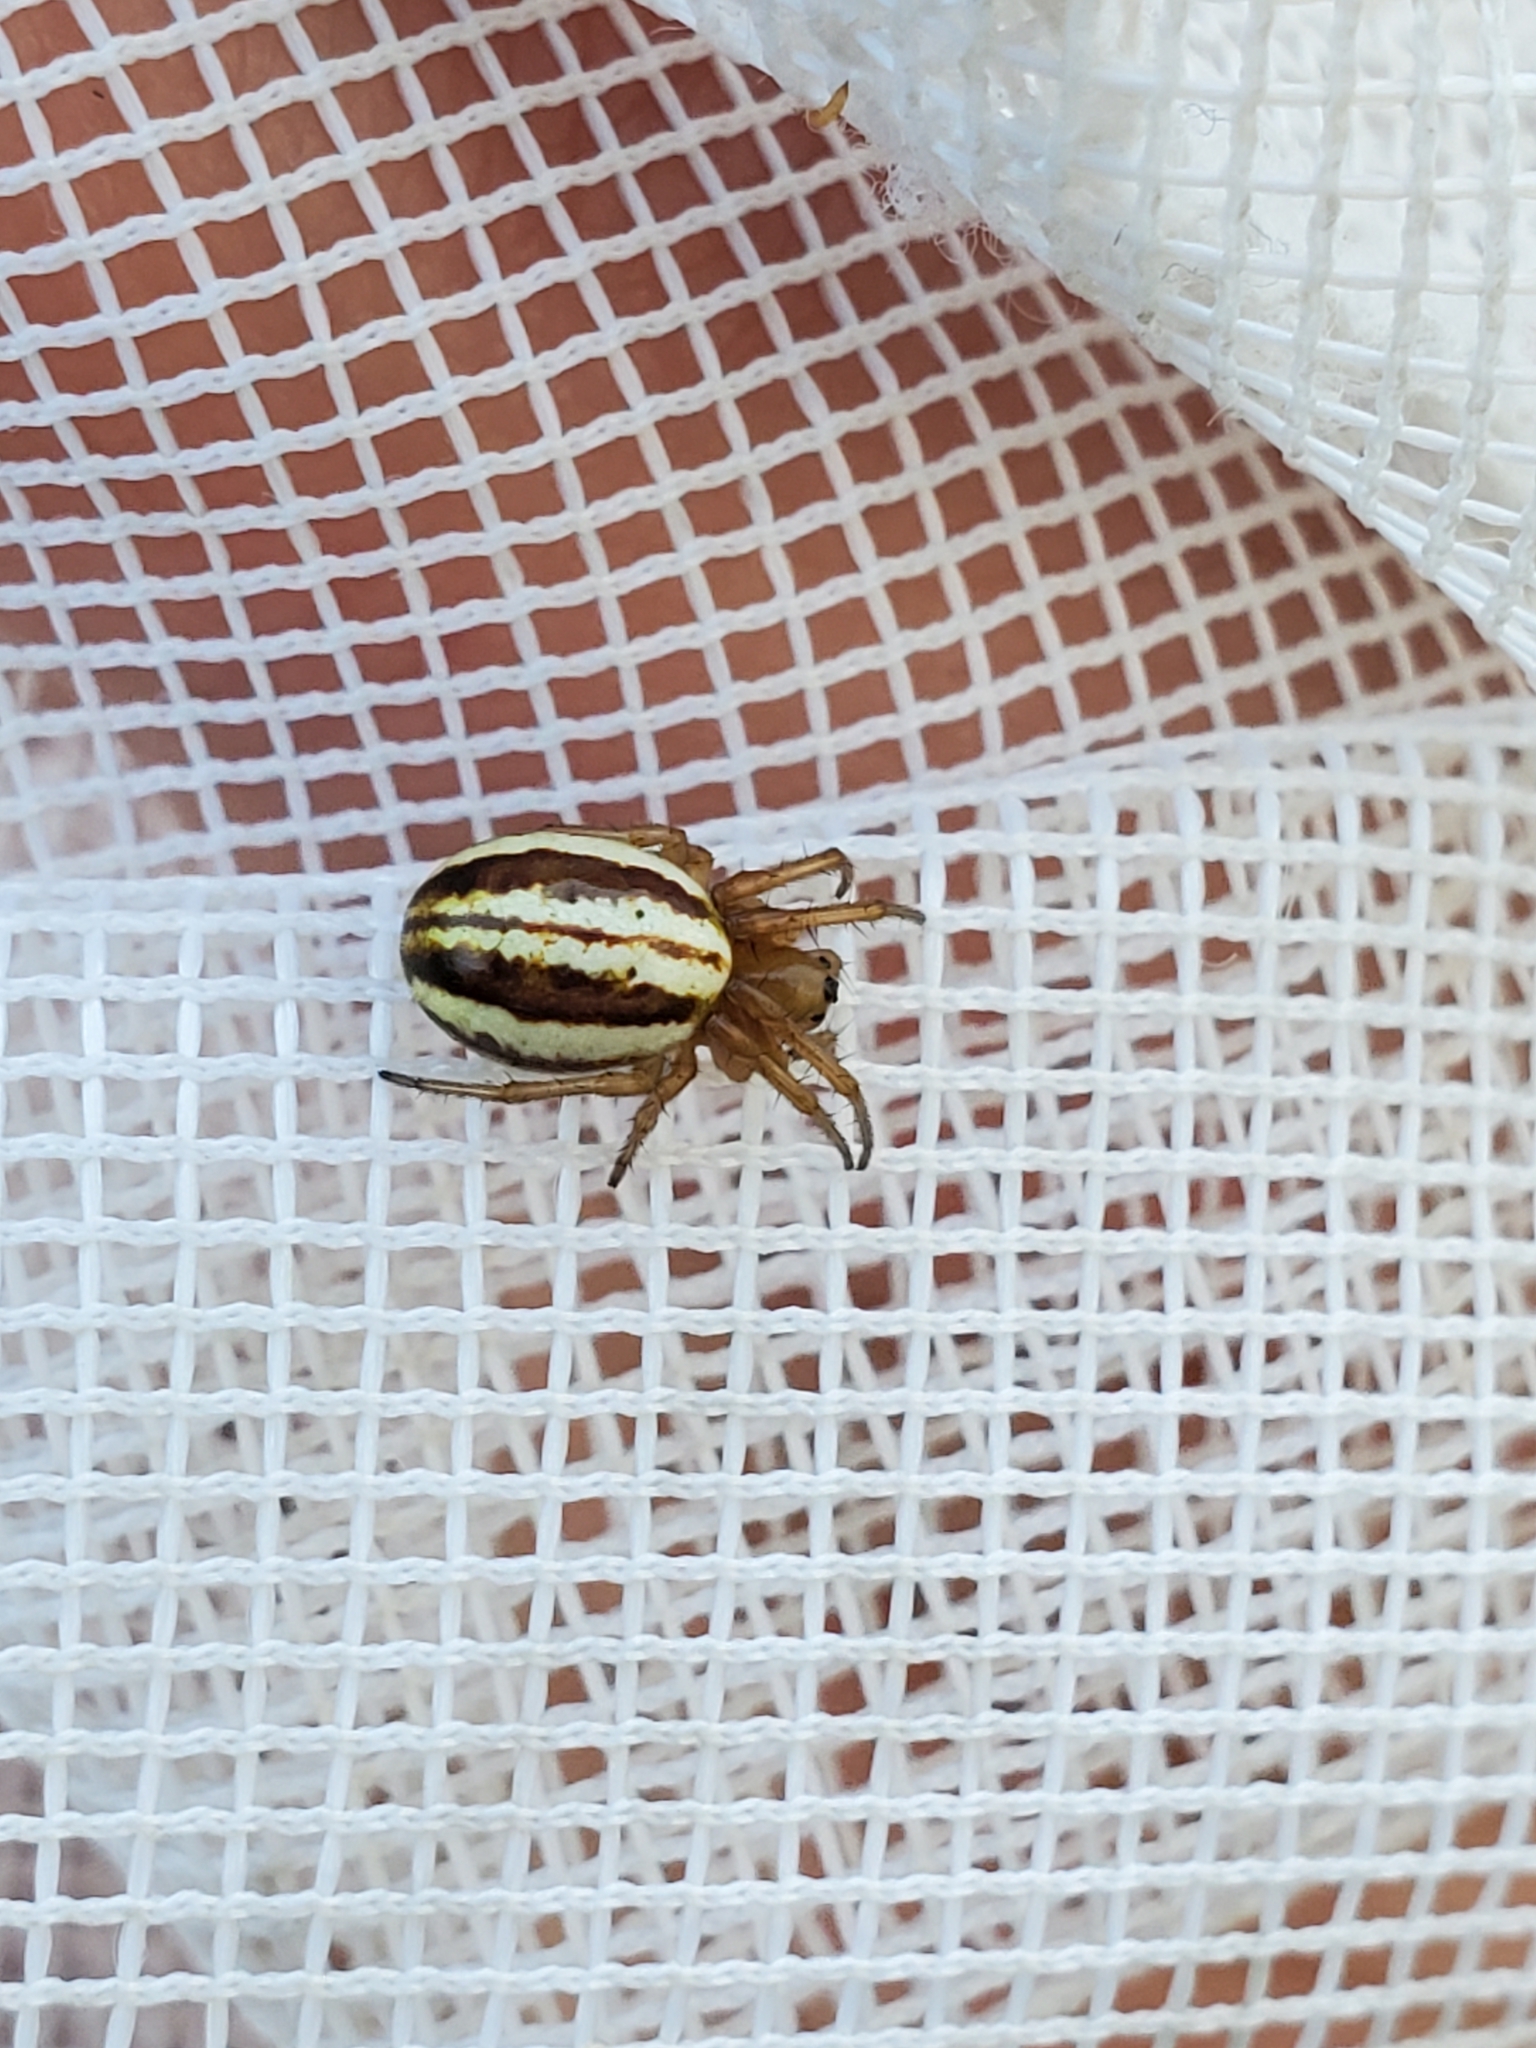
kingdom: Animalia
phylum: Arthropoda
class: Arachnida
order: Araneae
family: Araneidae
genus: Araneus
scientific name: Araneus pratensis
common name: Openfield orbweaver
